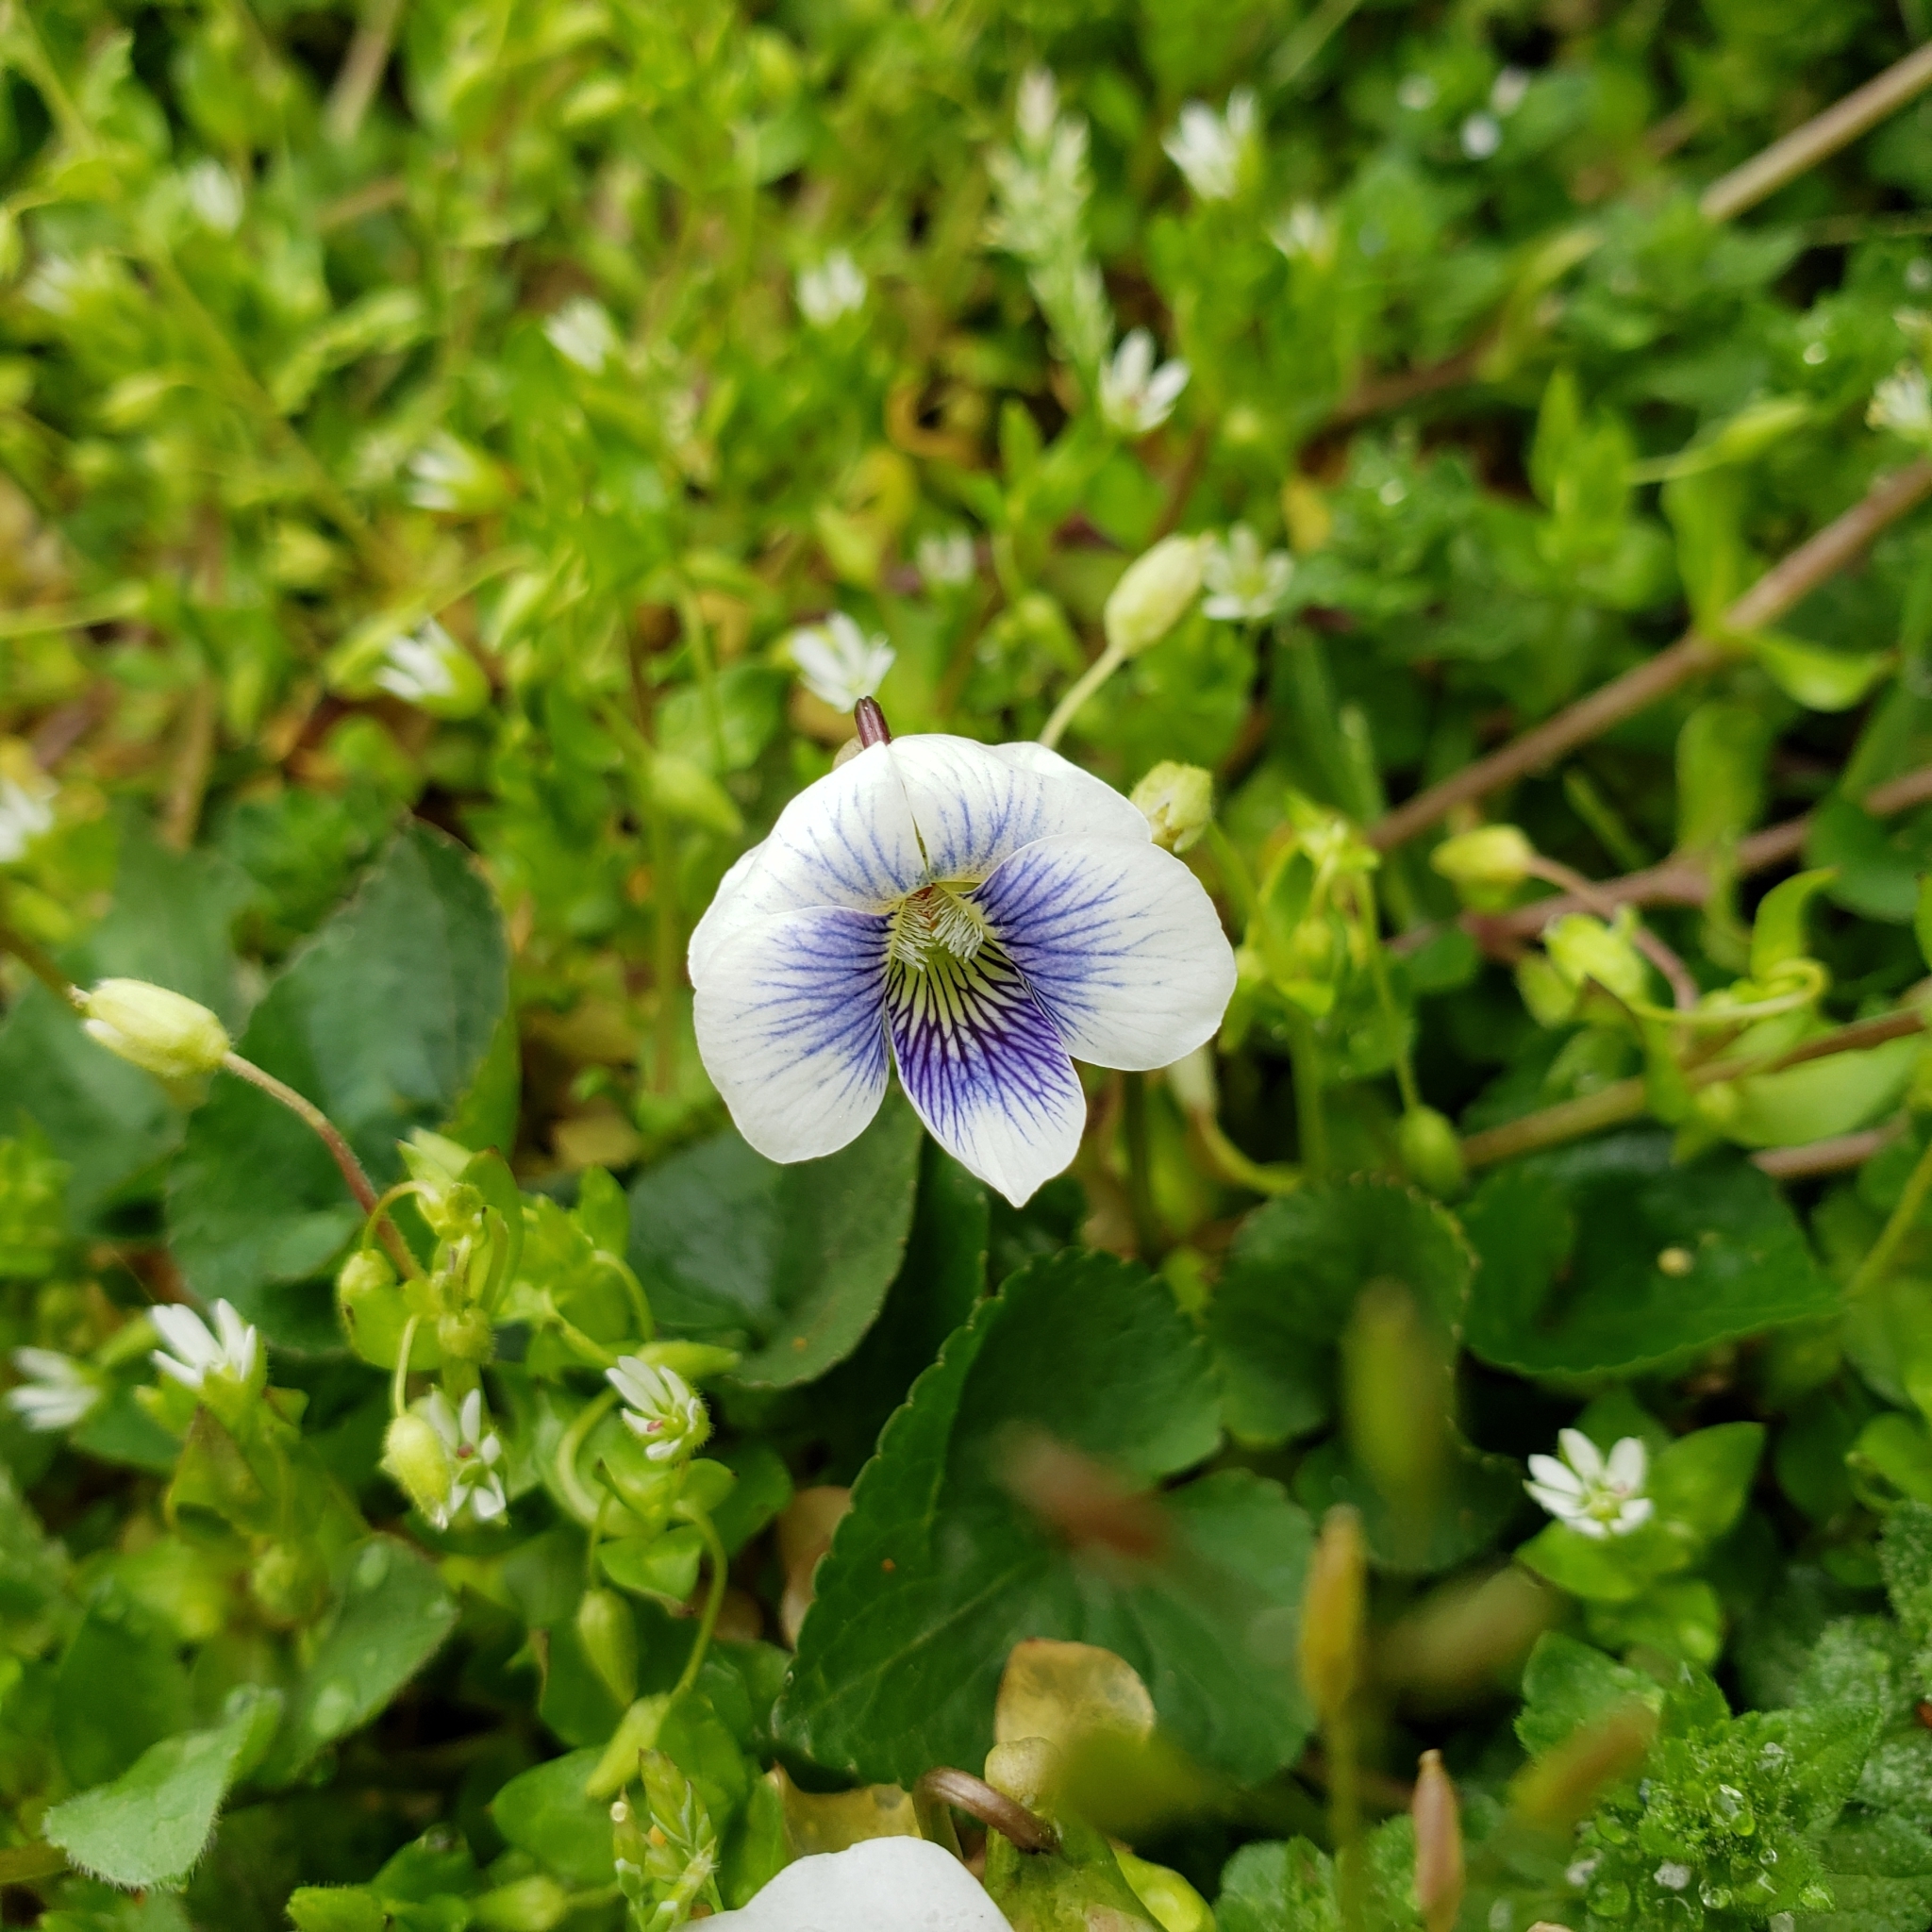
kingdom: Plantae
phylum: Tracheophyta
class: Magnoliopsida
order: Malpighiales
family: Violaceae
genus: Viola
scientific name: Viola sororia
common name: Dooryard violet
